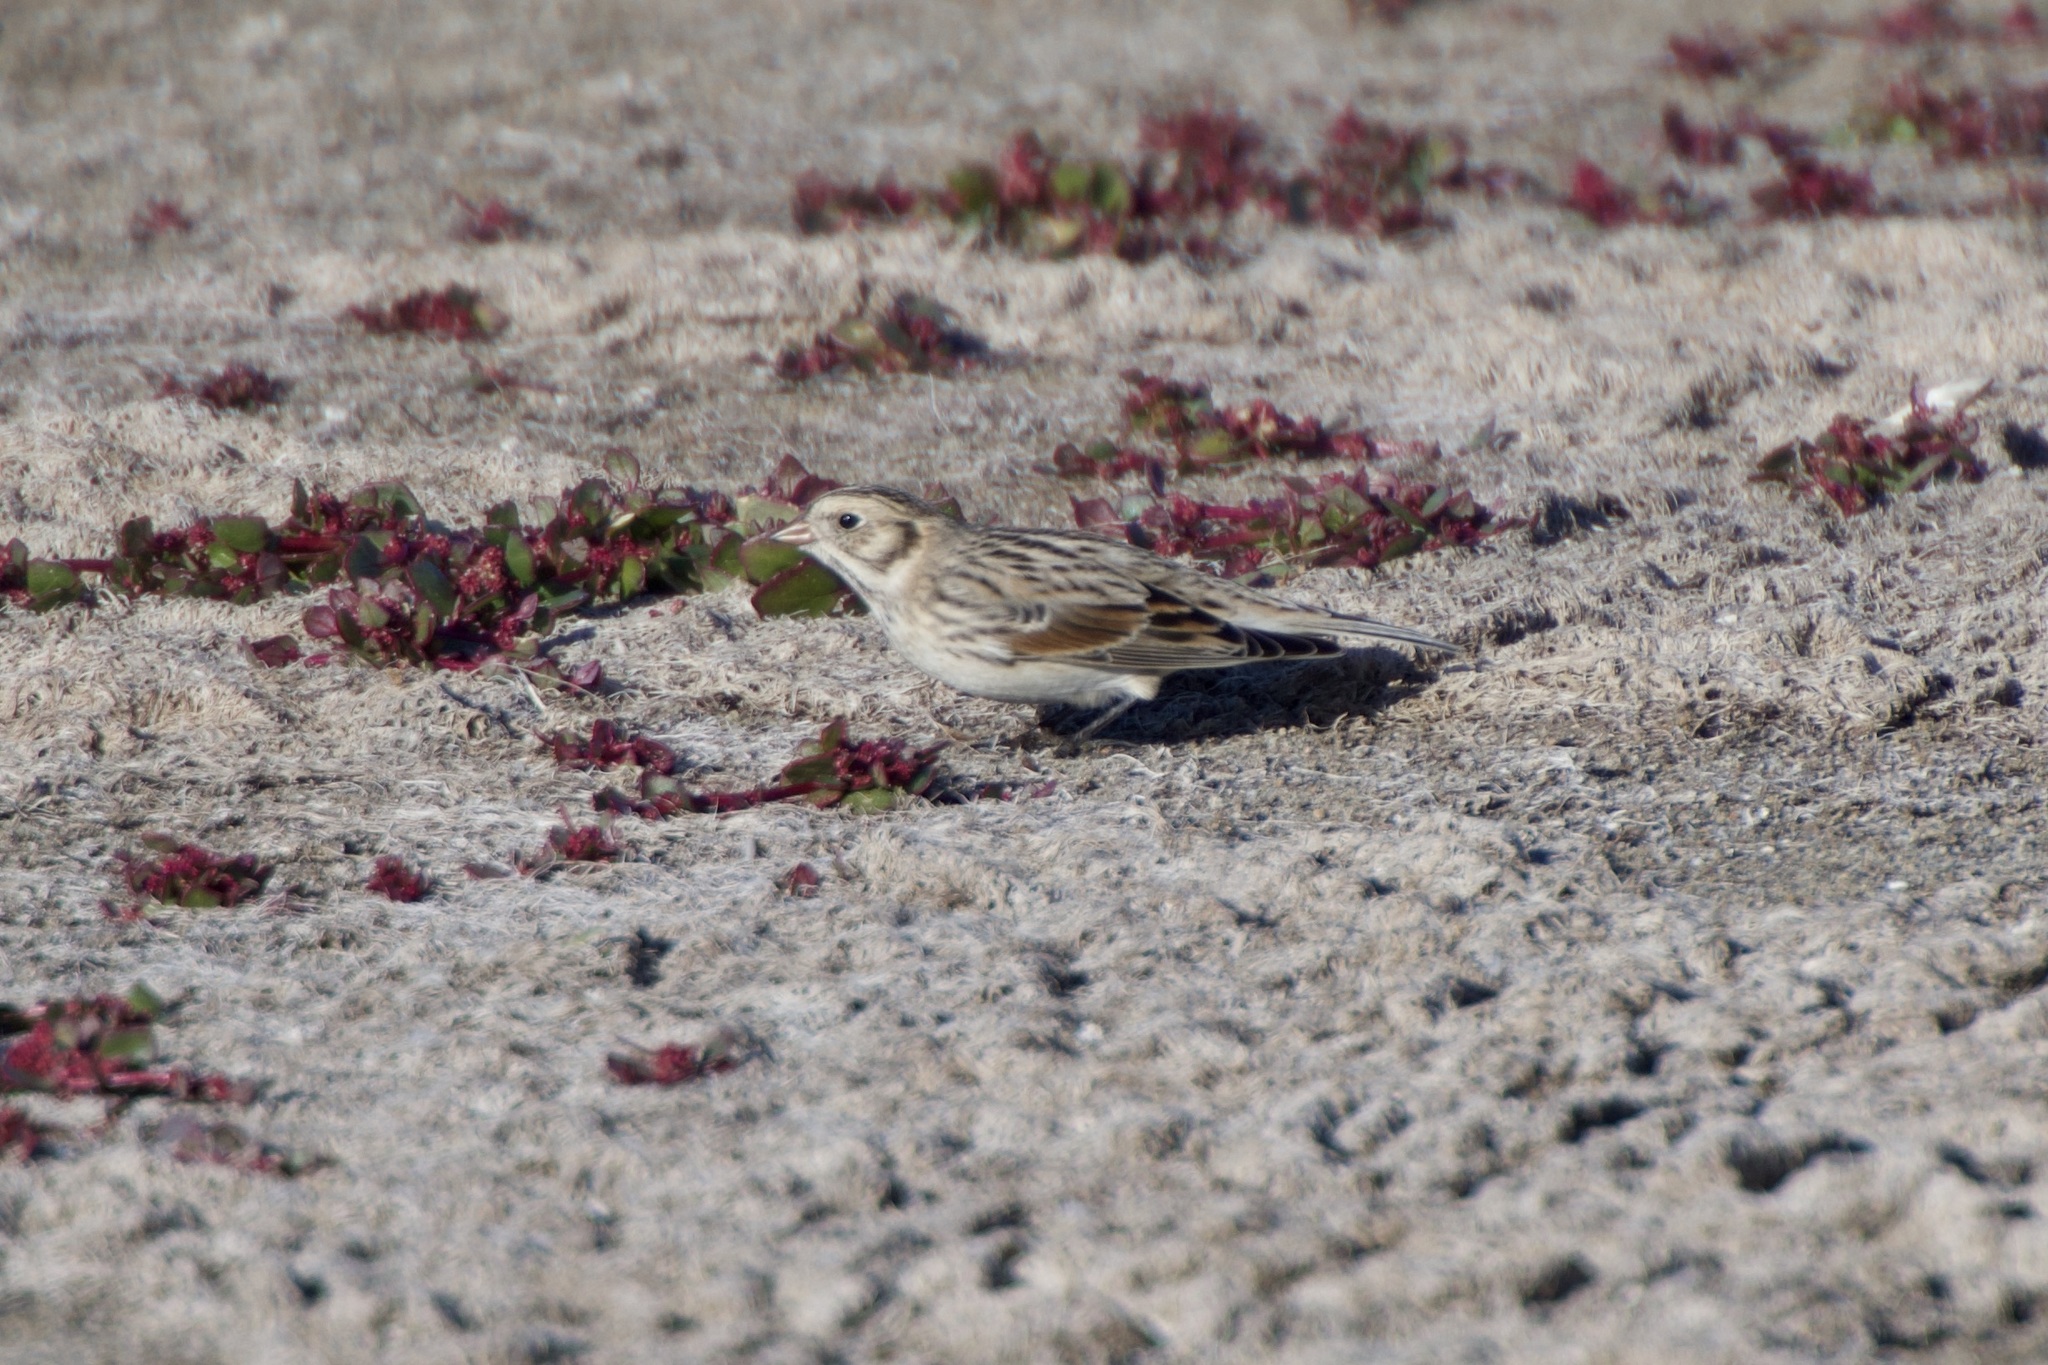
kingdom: Animalia
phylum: Chordata
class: Aves
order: Passeriformes
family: Calcariidae
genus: Calcarius
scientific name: Calcarius lapponicus
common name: Lapland longspur
